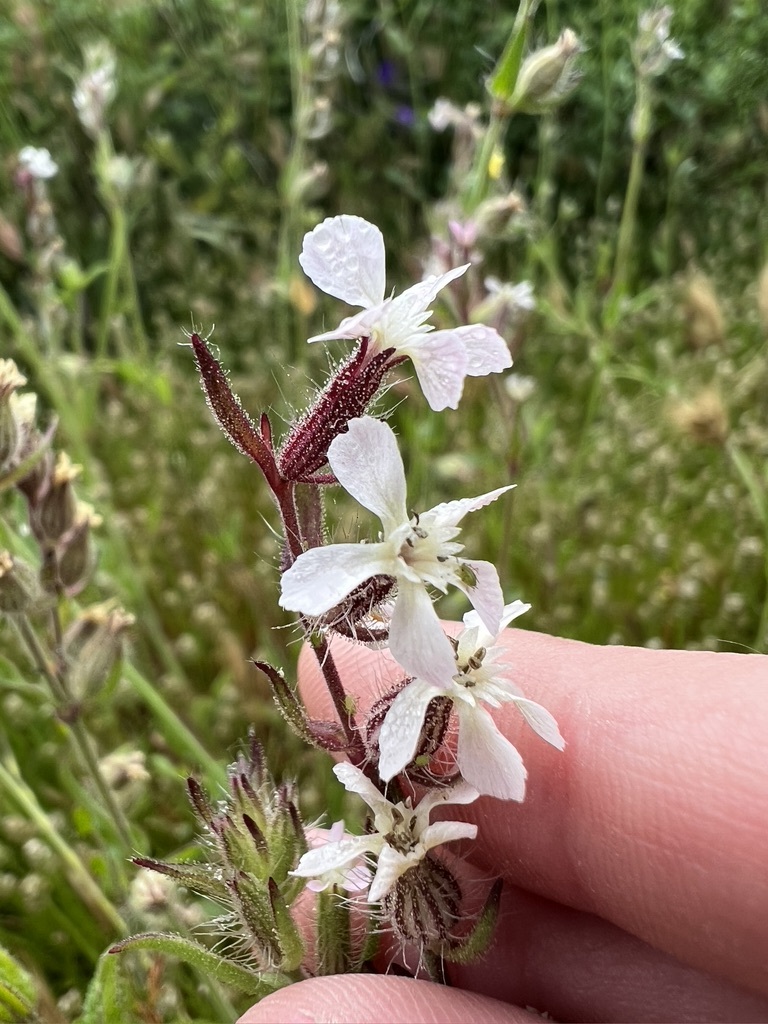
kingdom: Plantae
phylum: Tracheophyta
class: Magnoliopsida
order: Caryophyllales
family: Caryophyllaceae
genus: Silene
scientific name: Silene gallica
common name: Small-flowered catchfly
